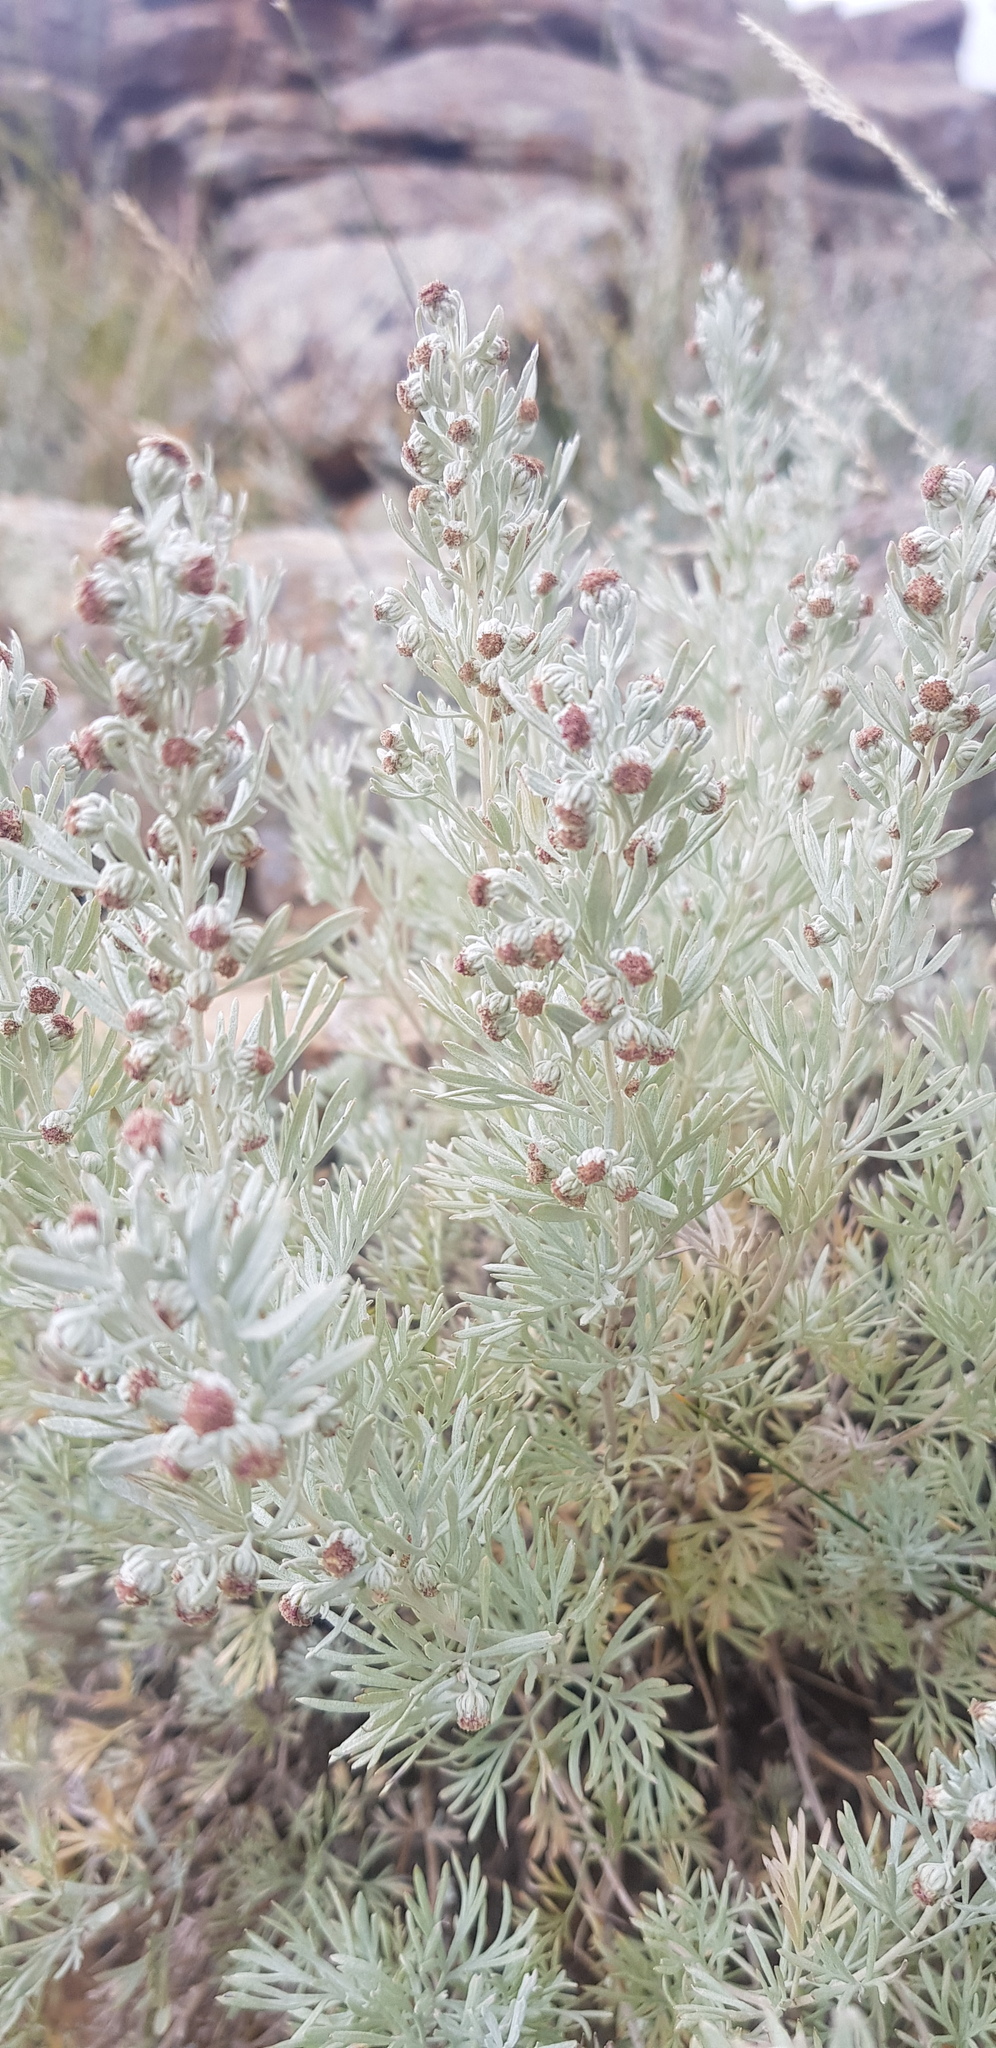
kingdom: Plantae
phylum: Tracheophyta
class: Magnoliopsida
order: Asterales
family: Asteraceae
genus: Artemisia
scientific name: Artemisia rutifolia
